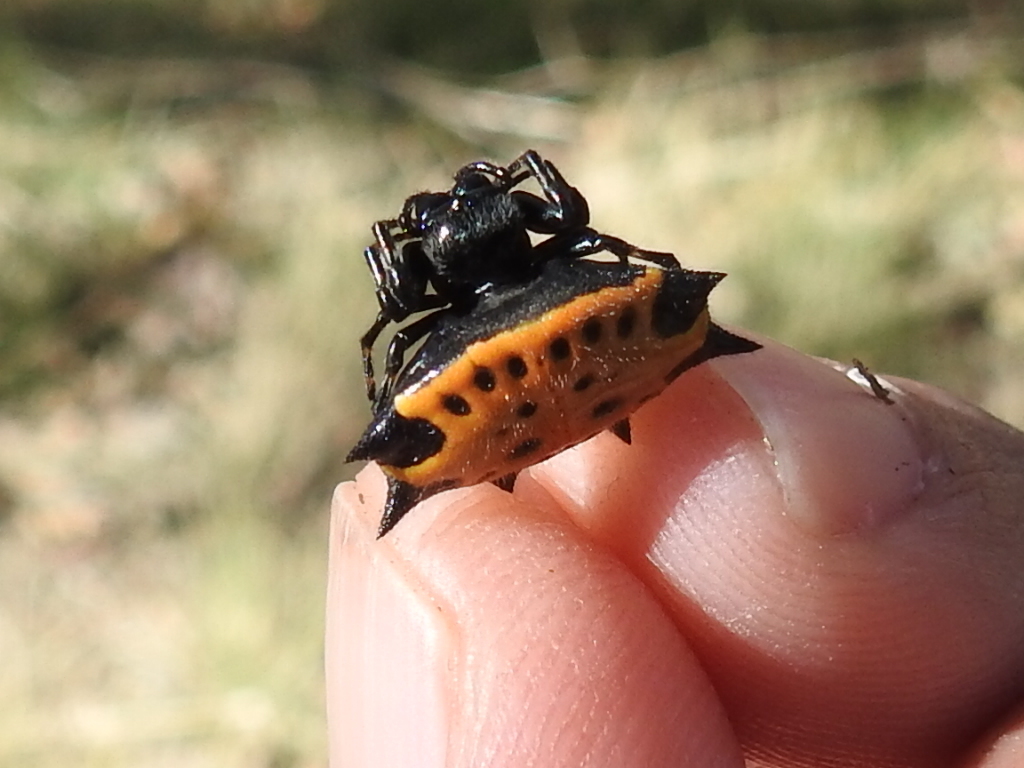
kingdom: Animalia
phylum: Arthropoda
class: Arachnida
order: Araneae
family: Araneidae
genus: Gasteracantha
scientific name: Gasteracantha cancriformis
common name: Orb weavers
